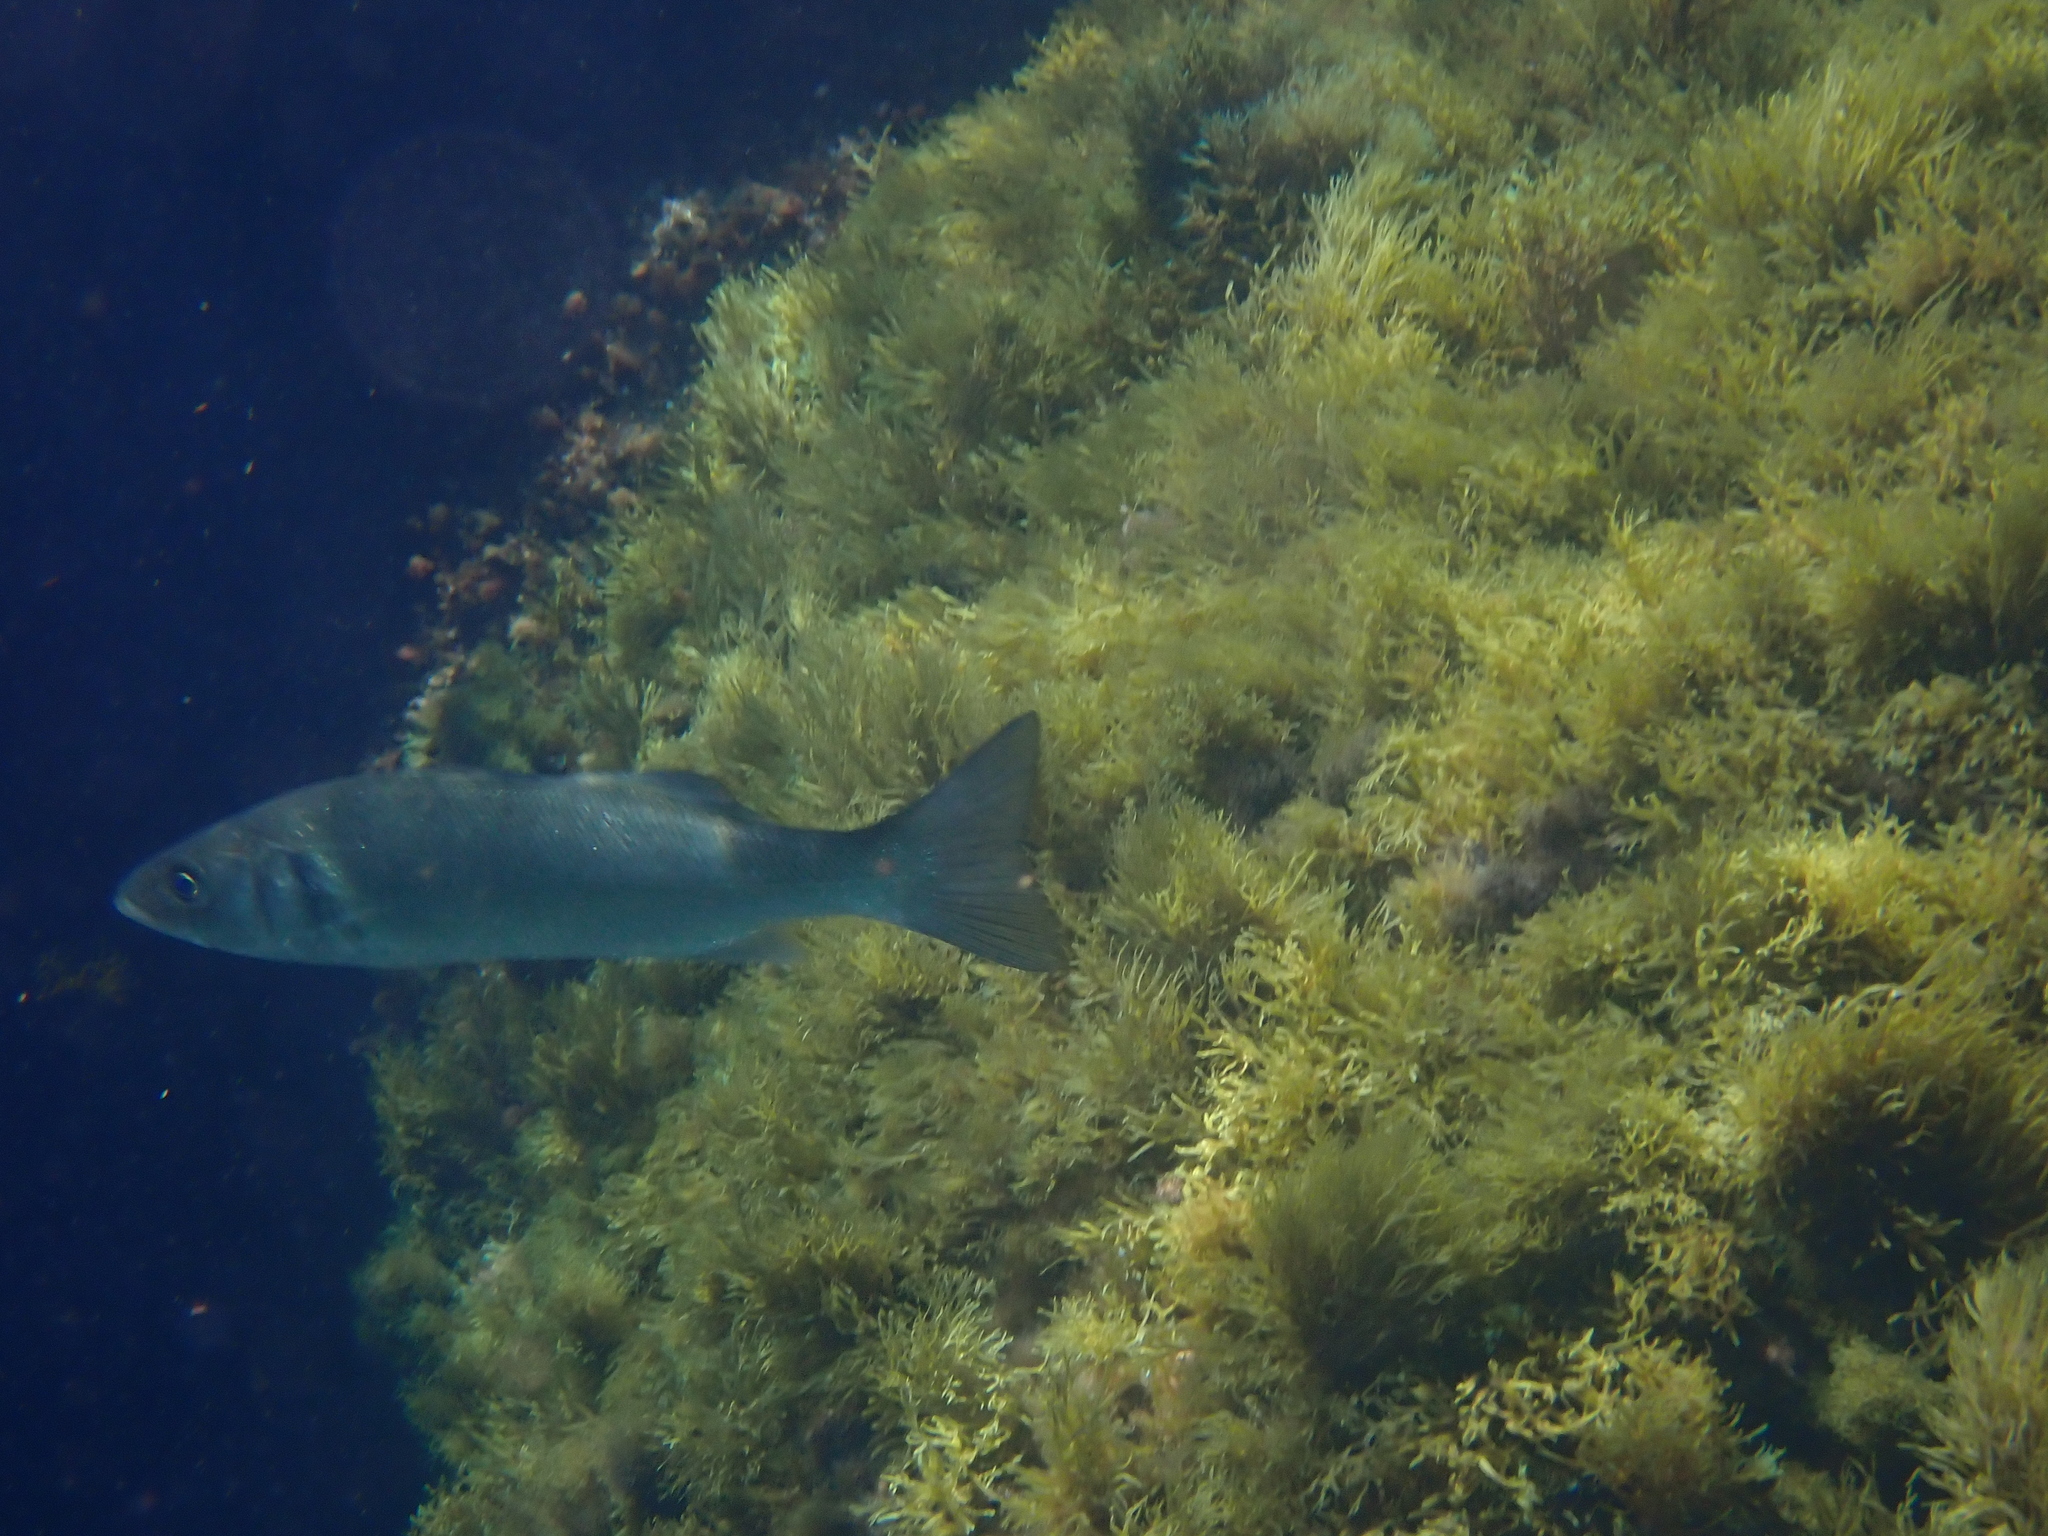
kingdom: Animalia
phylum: Chordata
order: Perciformes
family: Moronidae
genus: Dicentrarchus
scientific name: Dicentrarchus labrax
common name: European seabass
